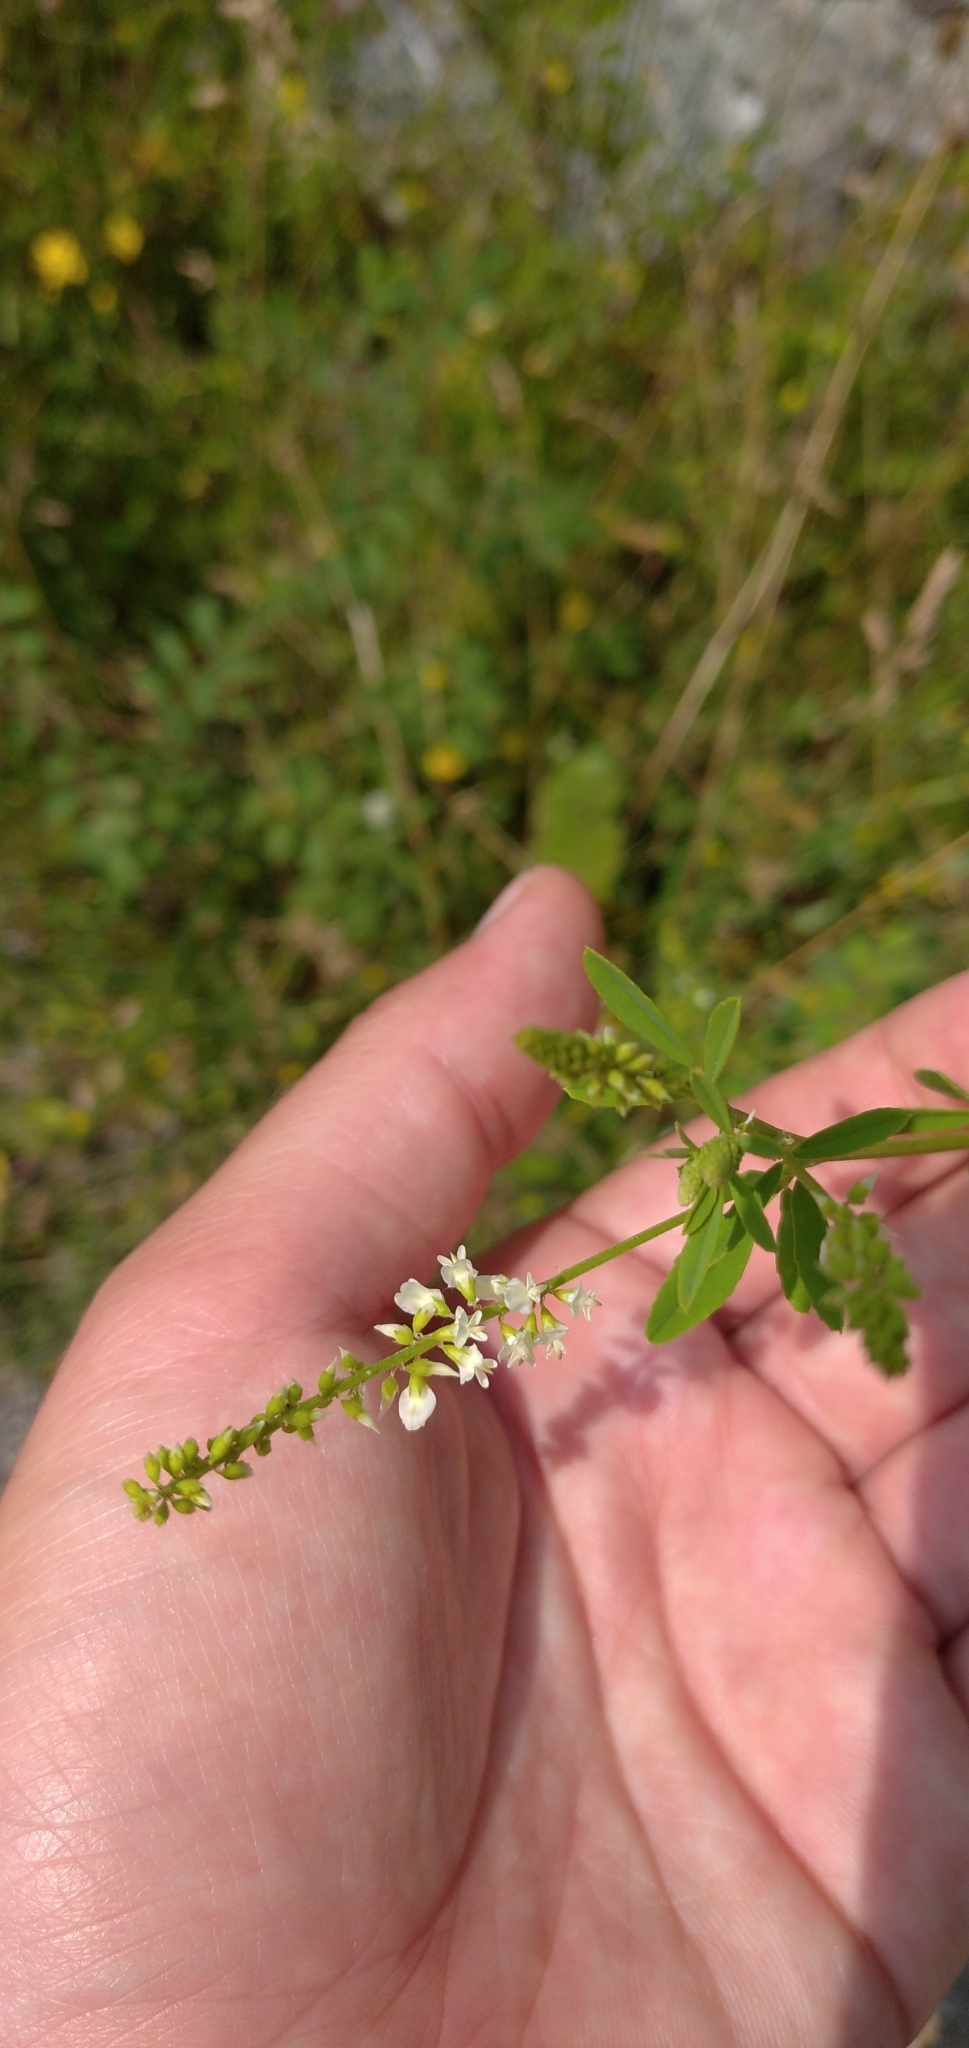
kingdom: Plantae
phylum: Tracheophyta
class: Magnoliopsida
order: Fabales
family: Fabaceae
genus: Melilotus
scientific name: Melilotus albus
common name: White melilot
